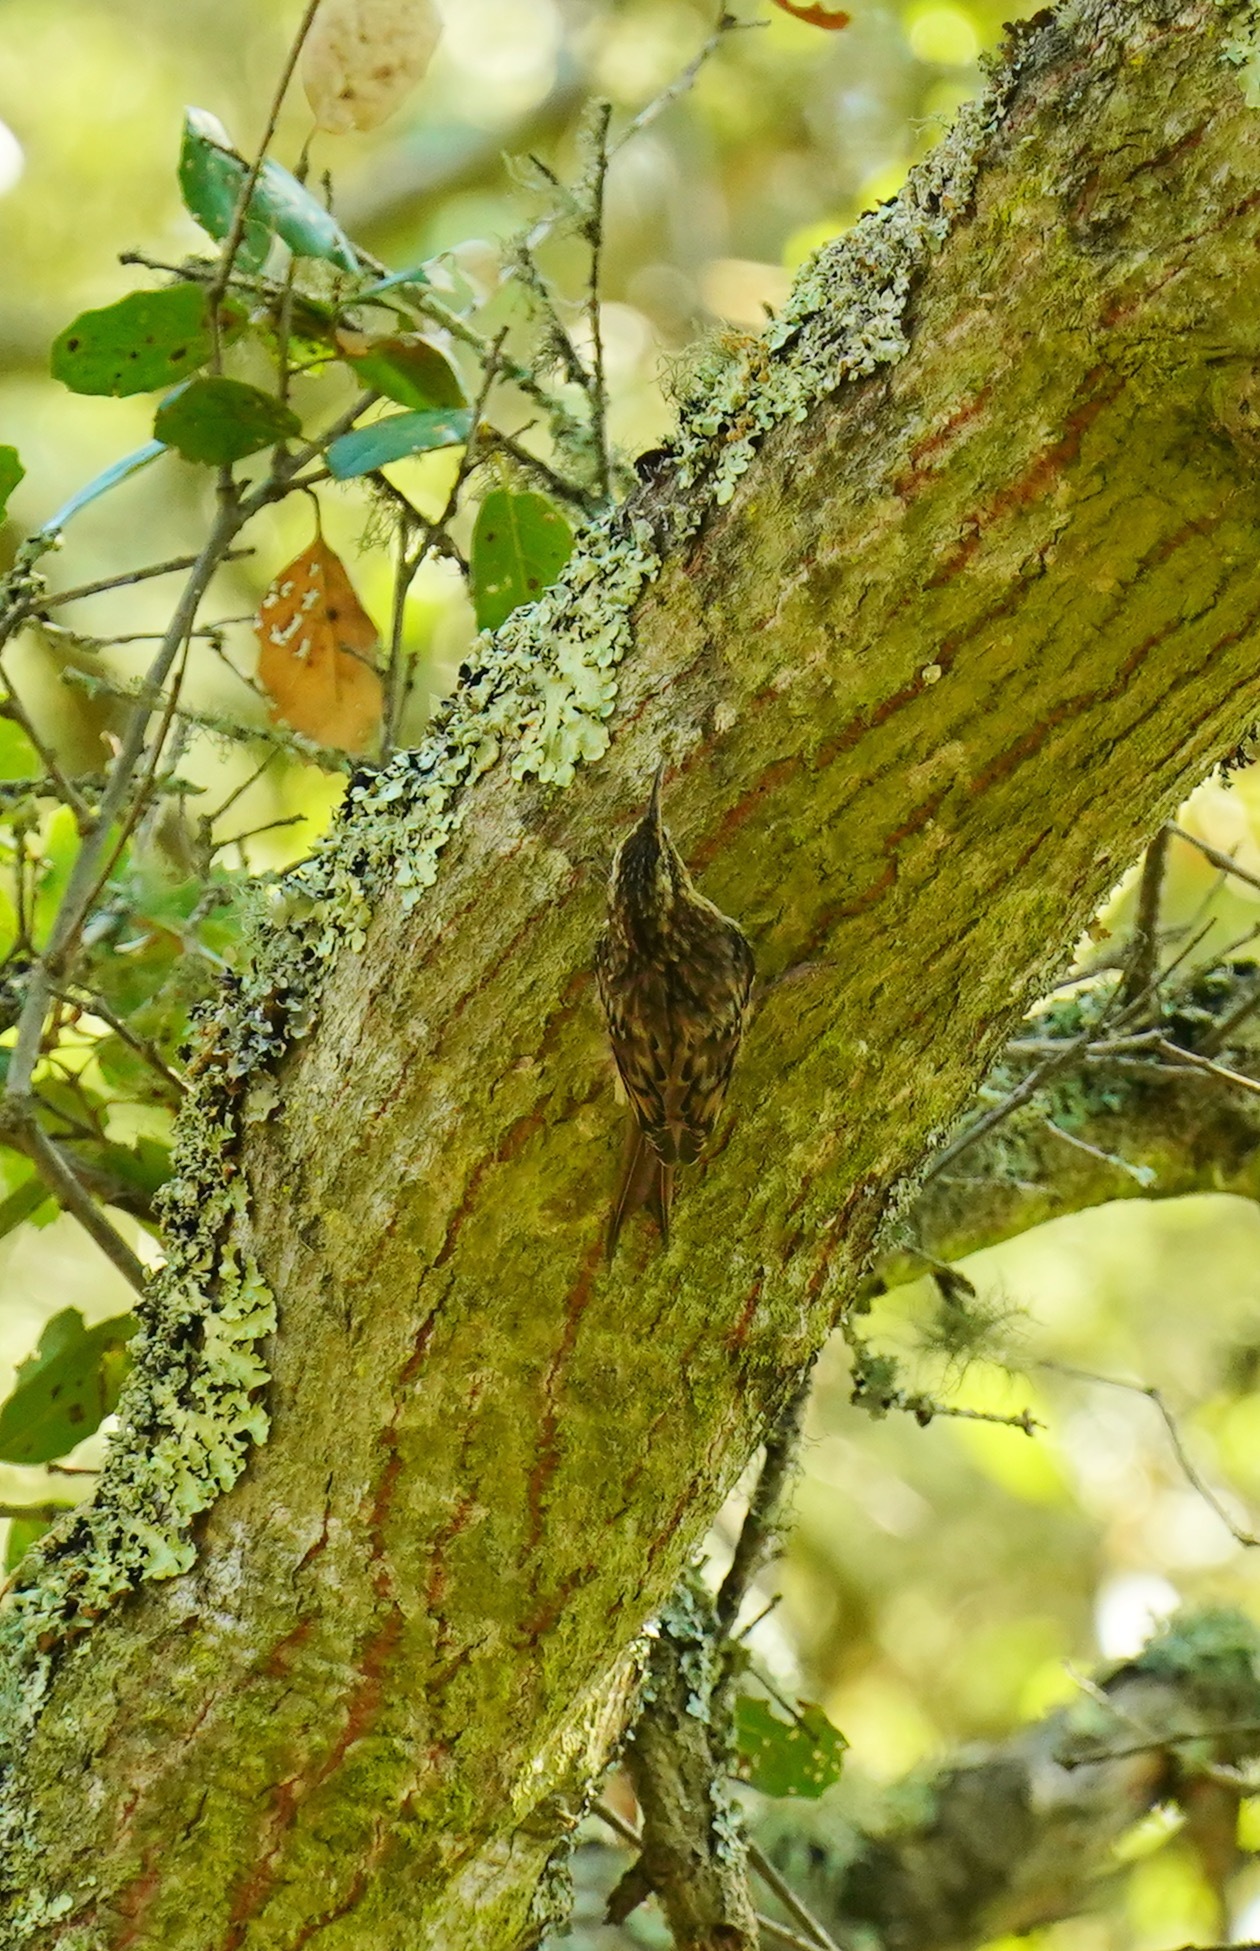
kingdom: Animalia
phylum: Chordata
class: Aves
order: Passeriformes
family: Certhiidae
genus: Certhia
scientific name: Certhia americana
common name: Brown creeper
